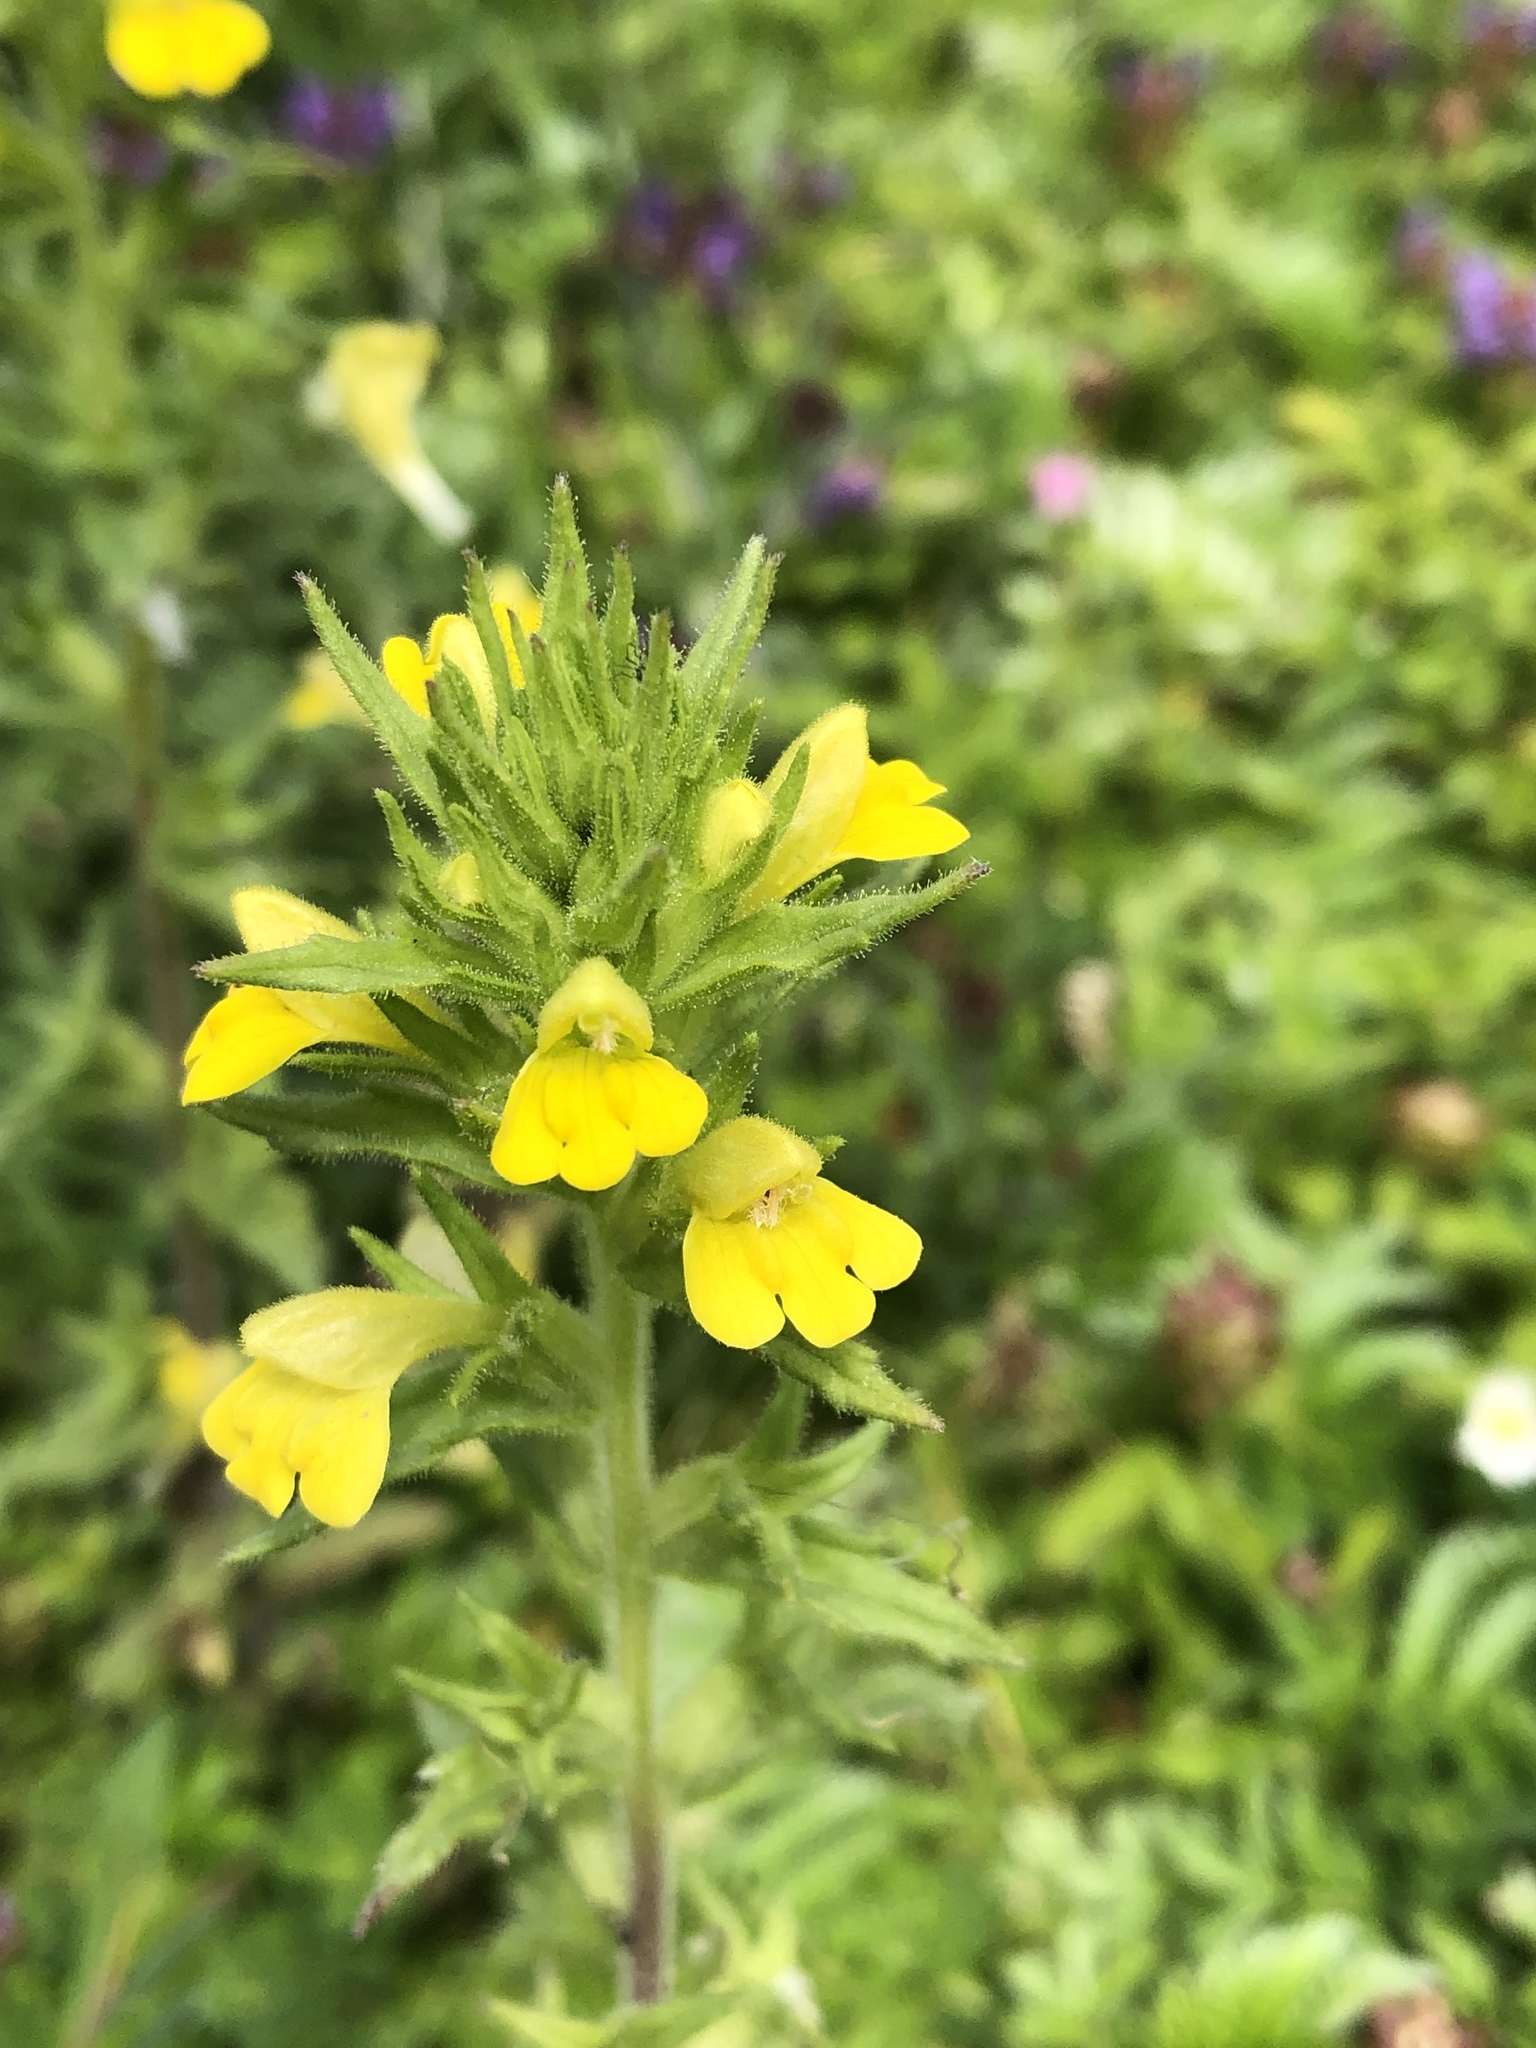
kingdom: Plantae
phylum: Tracheophyta
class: Magnoliopsida
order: Lamiales
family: Orobanchaceae
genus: Bellardia
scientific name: Bellardia viscosa
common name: Sticky parentucellia
